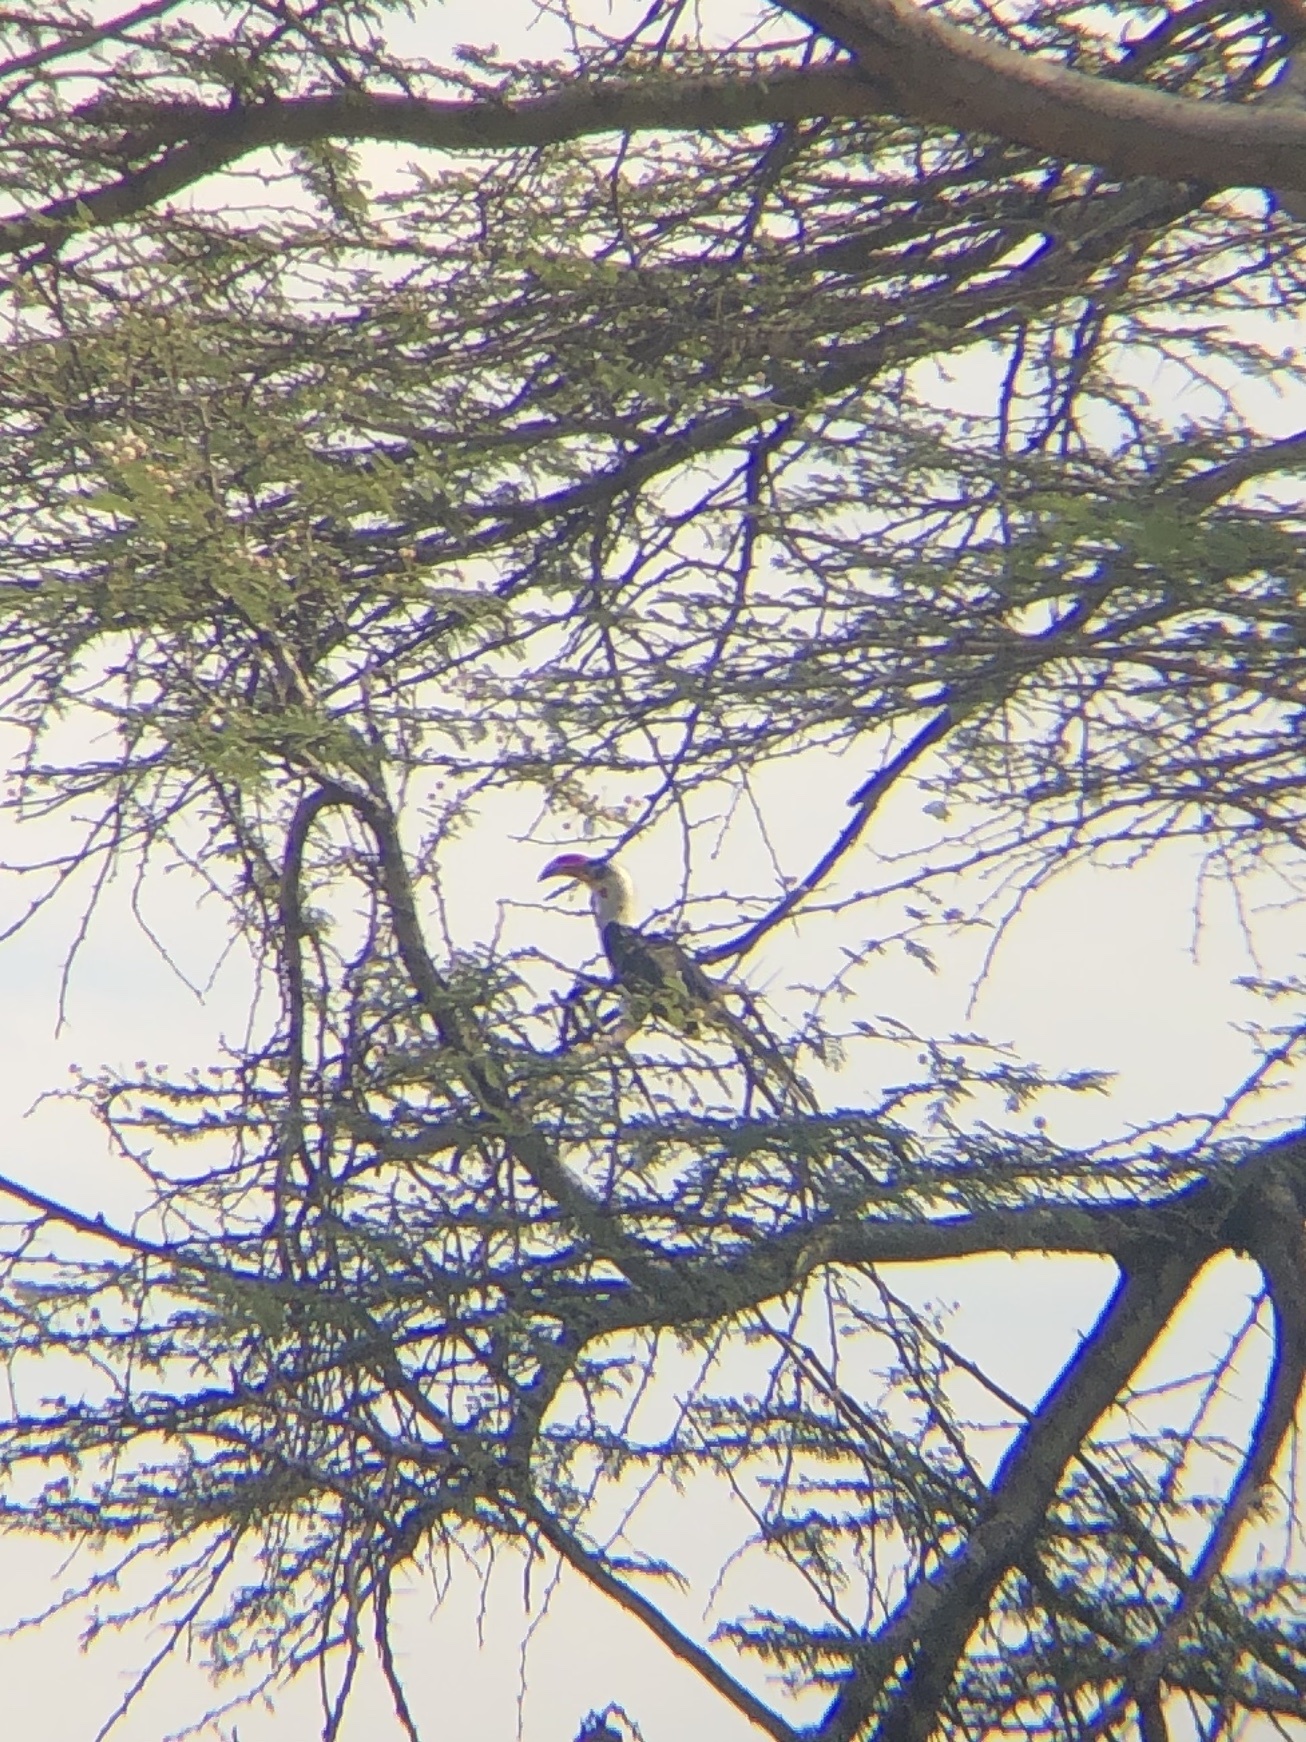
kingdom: Animalia
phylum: Chordata
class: Aves
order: Bucerotiformes
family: Bucerotidae
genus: Tockus
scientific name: Tockus deckeni
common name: Von der decken's hornbill
